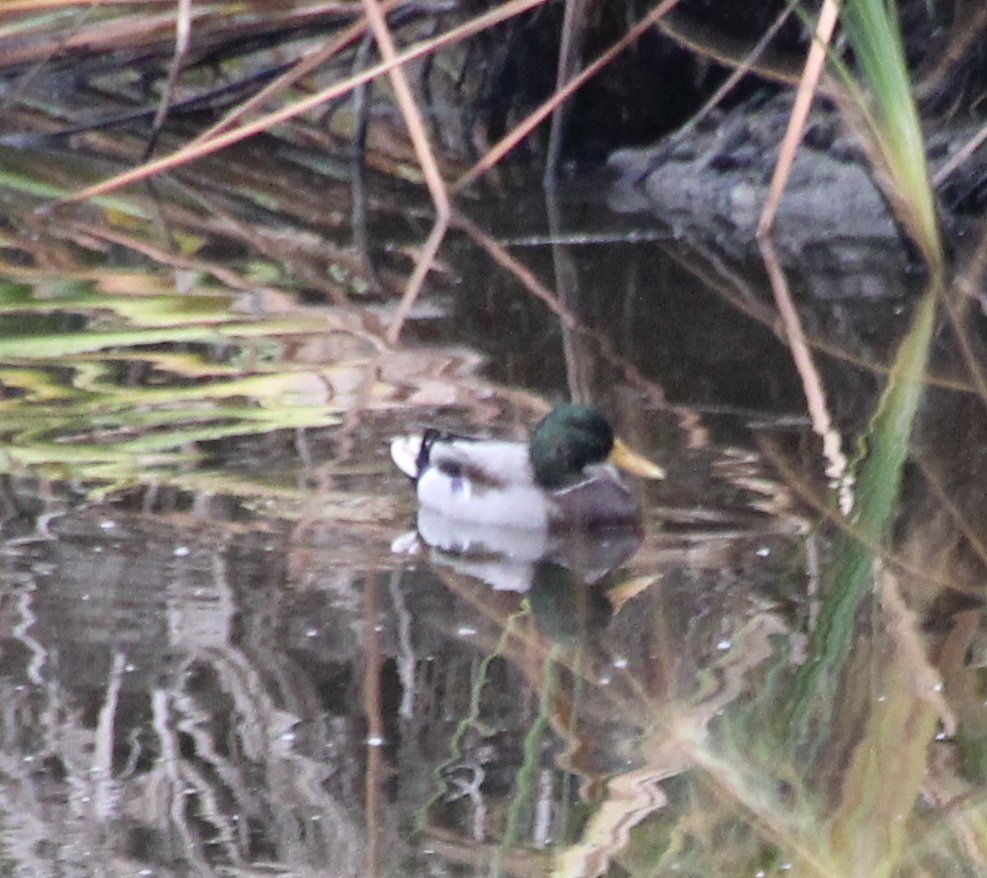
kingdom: Animalia
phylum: Chordata
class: Aves
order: Anseriformes
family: Anatidae
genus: Anas
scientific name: Anas platyrhynchos
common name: Mallard
